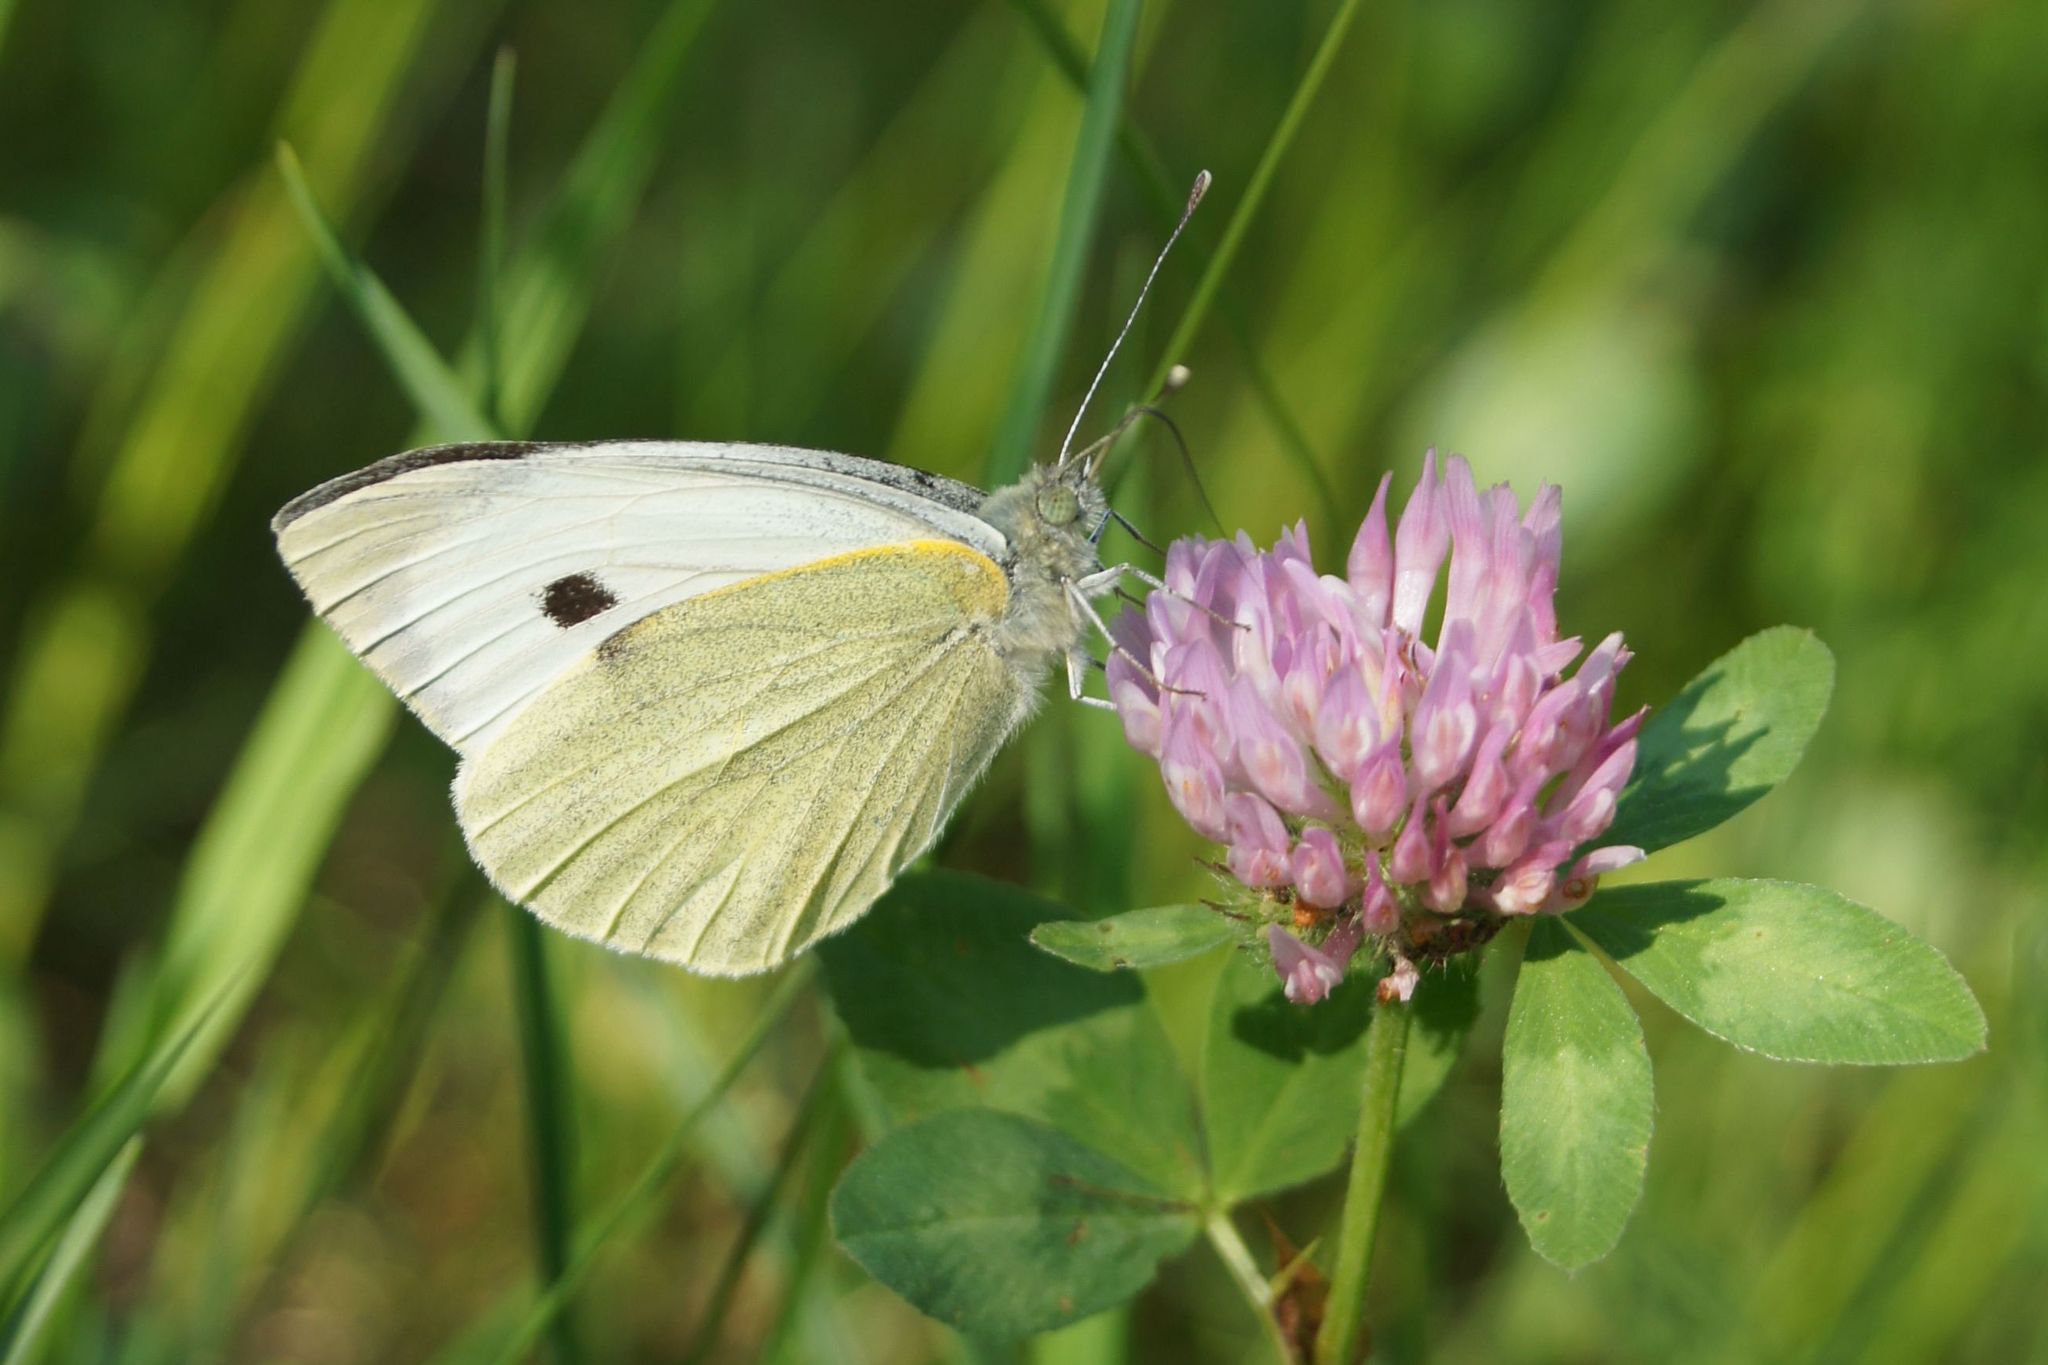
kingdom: Animalia
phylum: Arthropoda
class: Insecta
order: Lepidoptera
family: Pieridae
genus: Pieris
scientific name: Pieris brassicae
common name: Large white
